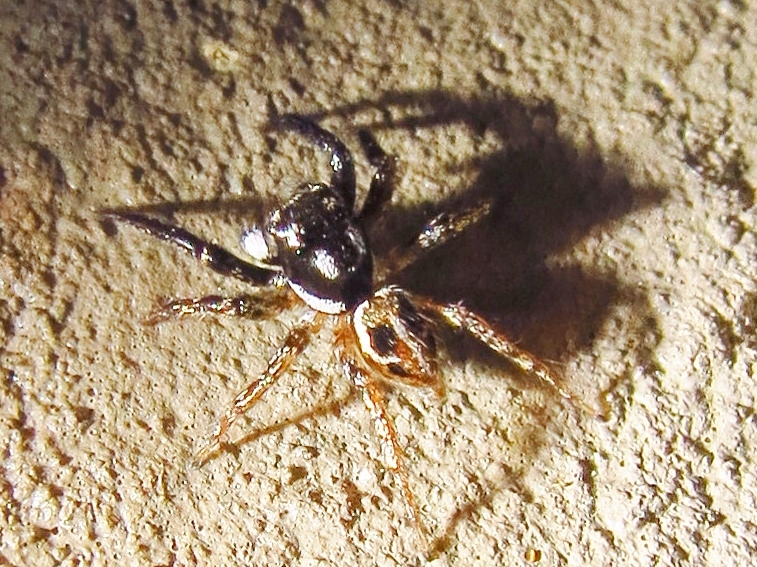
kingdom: Animalia
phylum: Arthropoda
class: Arachnida
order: Araneae
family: Salticidae
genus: Anasaitis
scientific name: Anasaitis canosa
